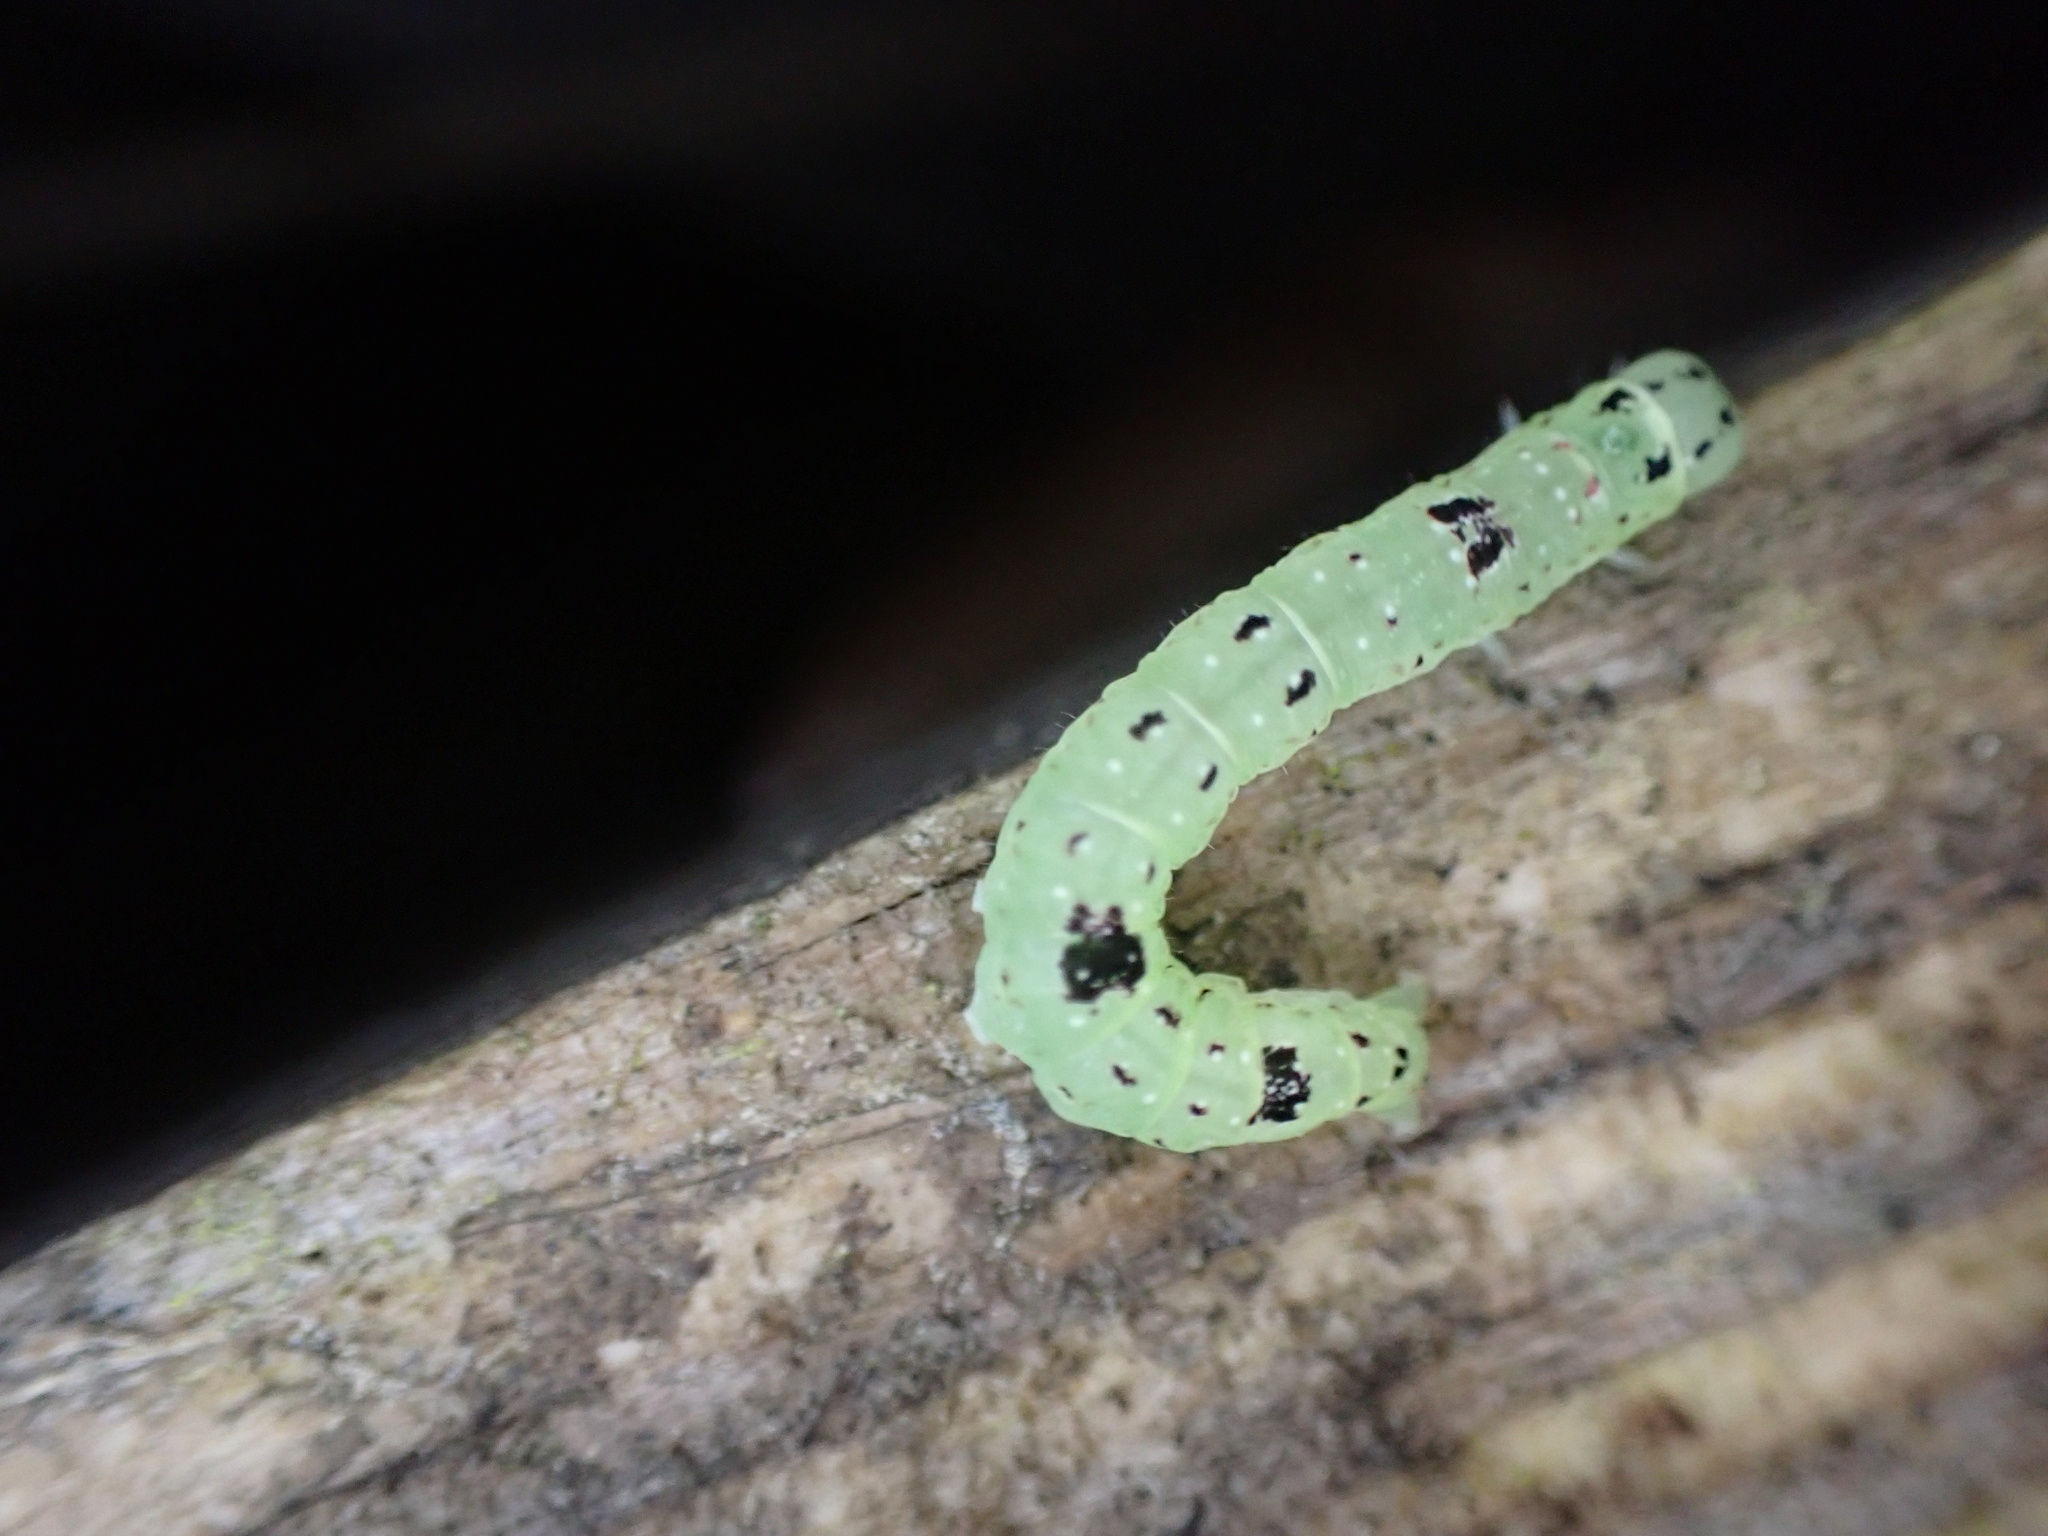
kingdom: Animalia
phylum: Arthropoda
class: Insecta
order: Lepidoptera
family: Erebidae
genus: Hypsoropha
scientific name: Hypsoropha hormos
